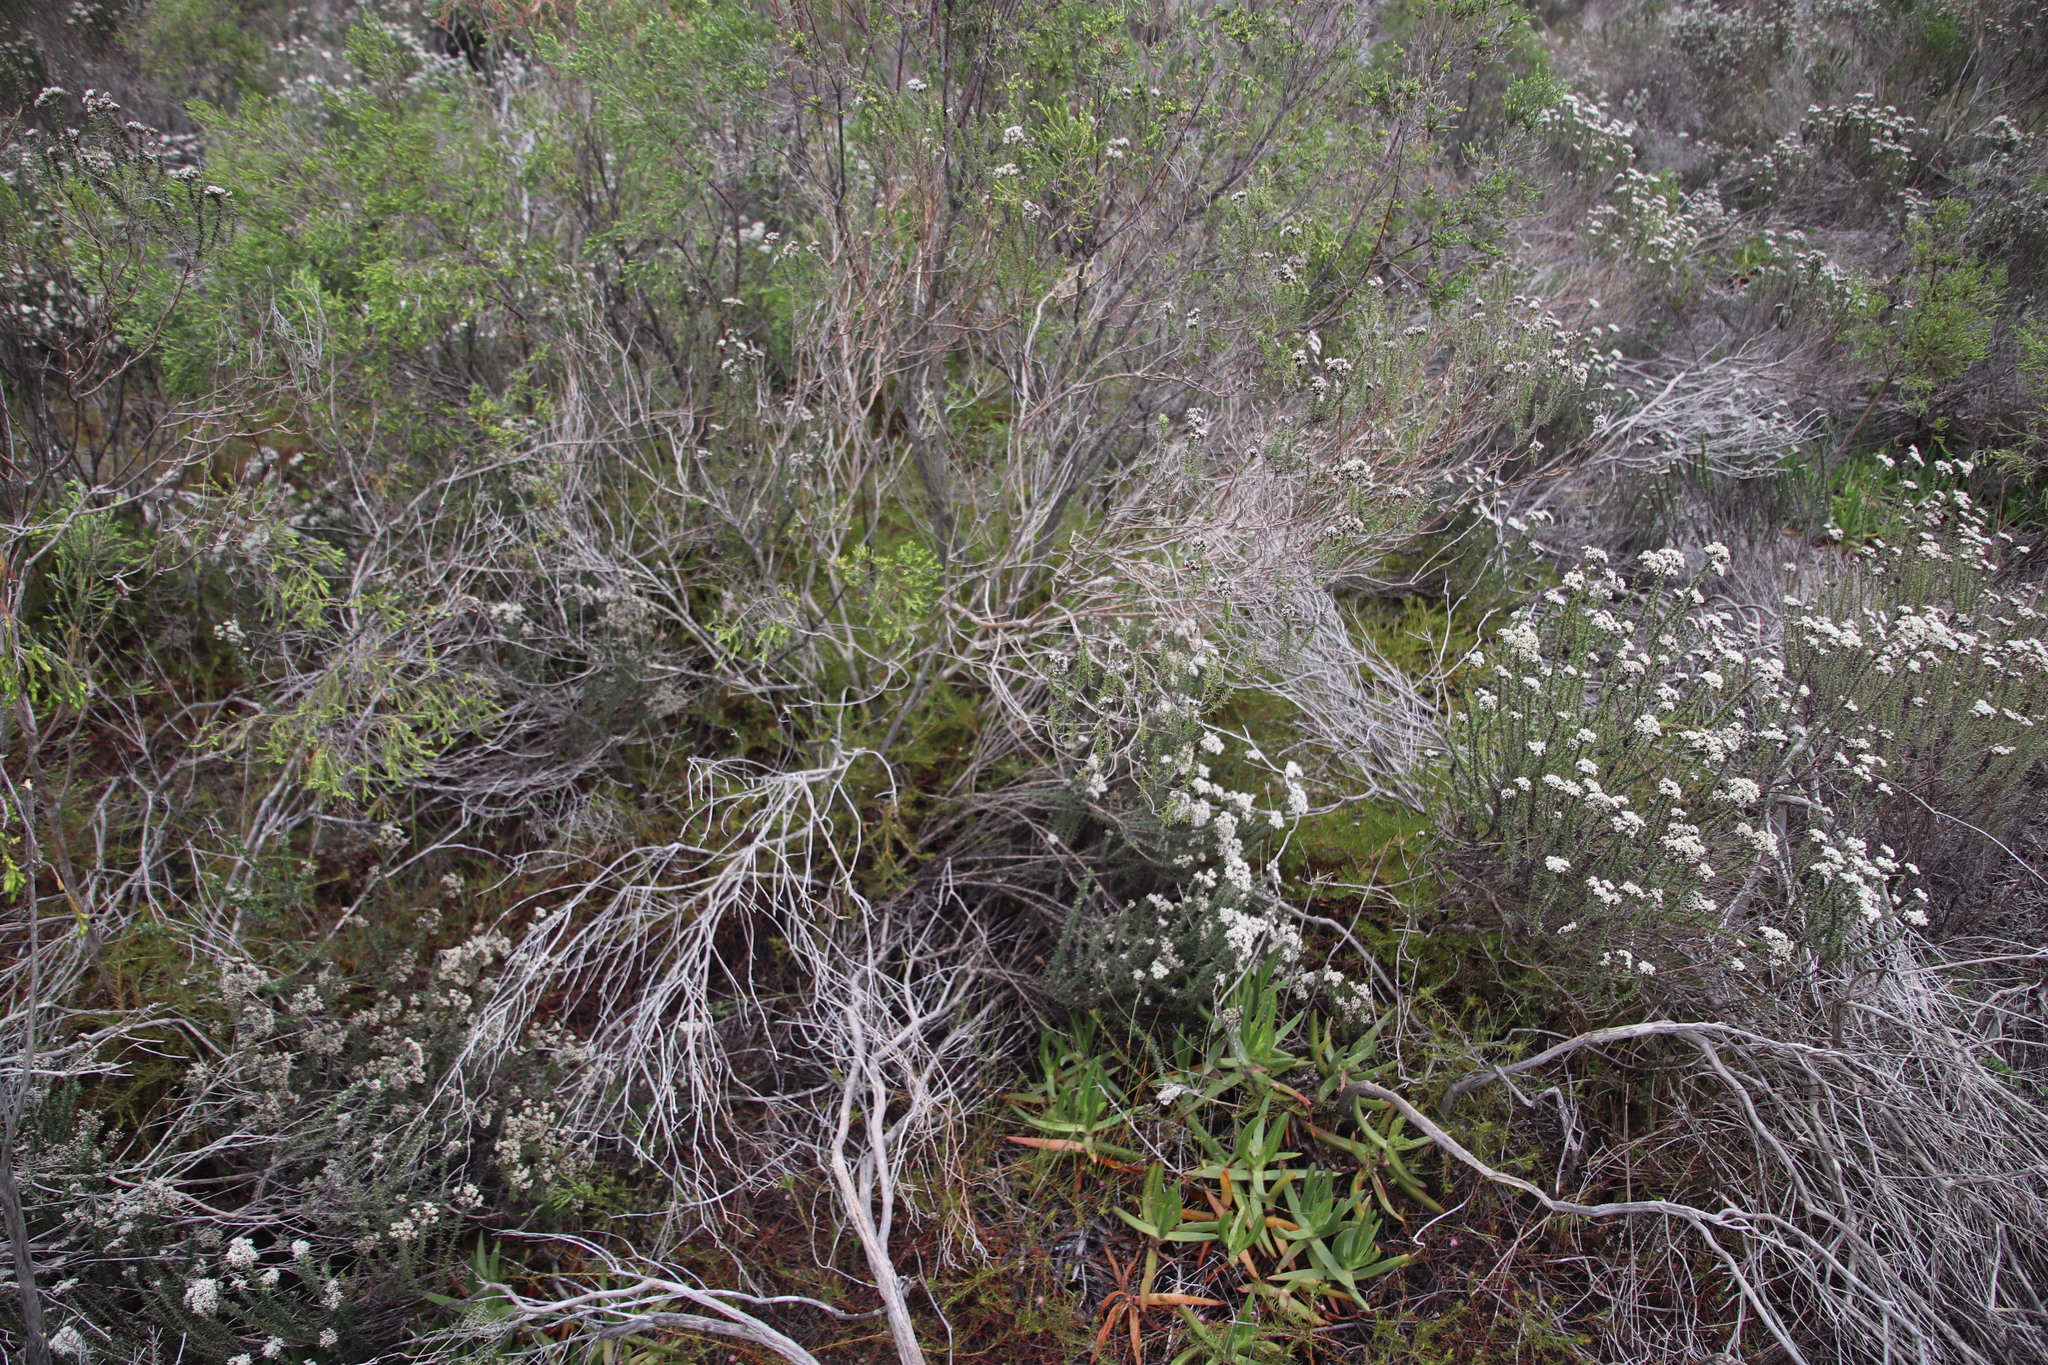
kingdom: Plantae
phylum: Tracheophyta
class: Magnoliopsida
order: Proteales
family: Proteaceae
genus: Diastella
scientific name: Diastella proteoides
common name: Flats silkypuff
